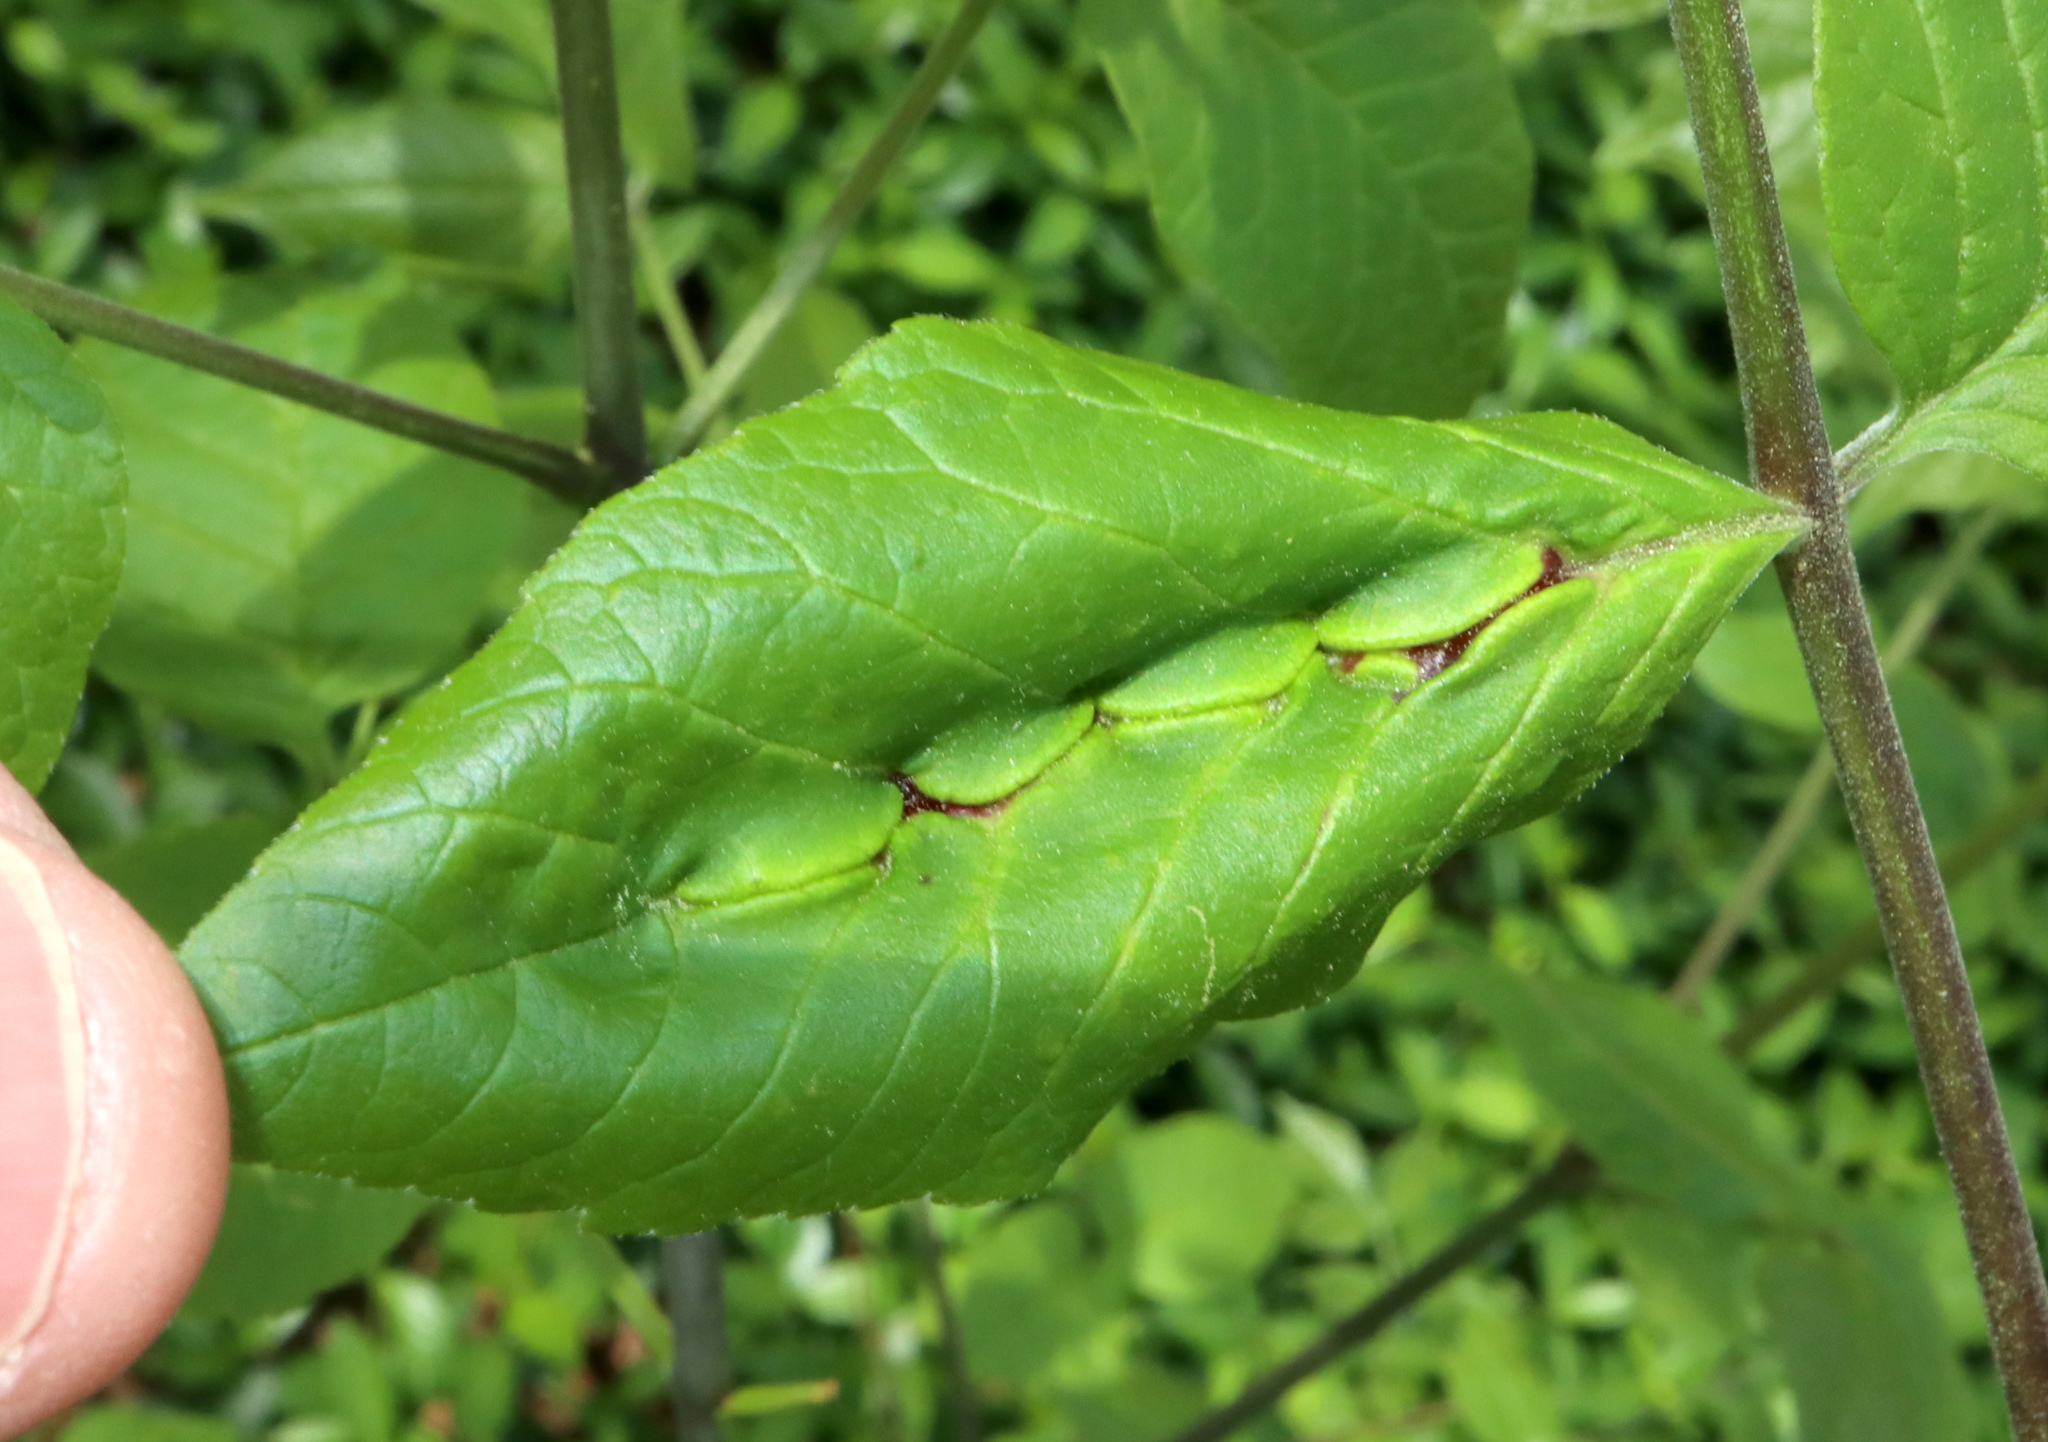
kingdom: Animalia
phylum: Arthropoda
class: Insecta
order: Diptera
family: Cecidomyiidae
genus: Dasineura
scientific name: Dasineura tumidosae
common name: Ash petiole gall midge
